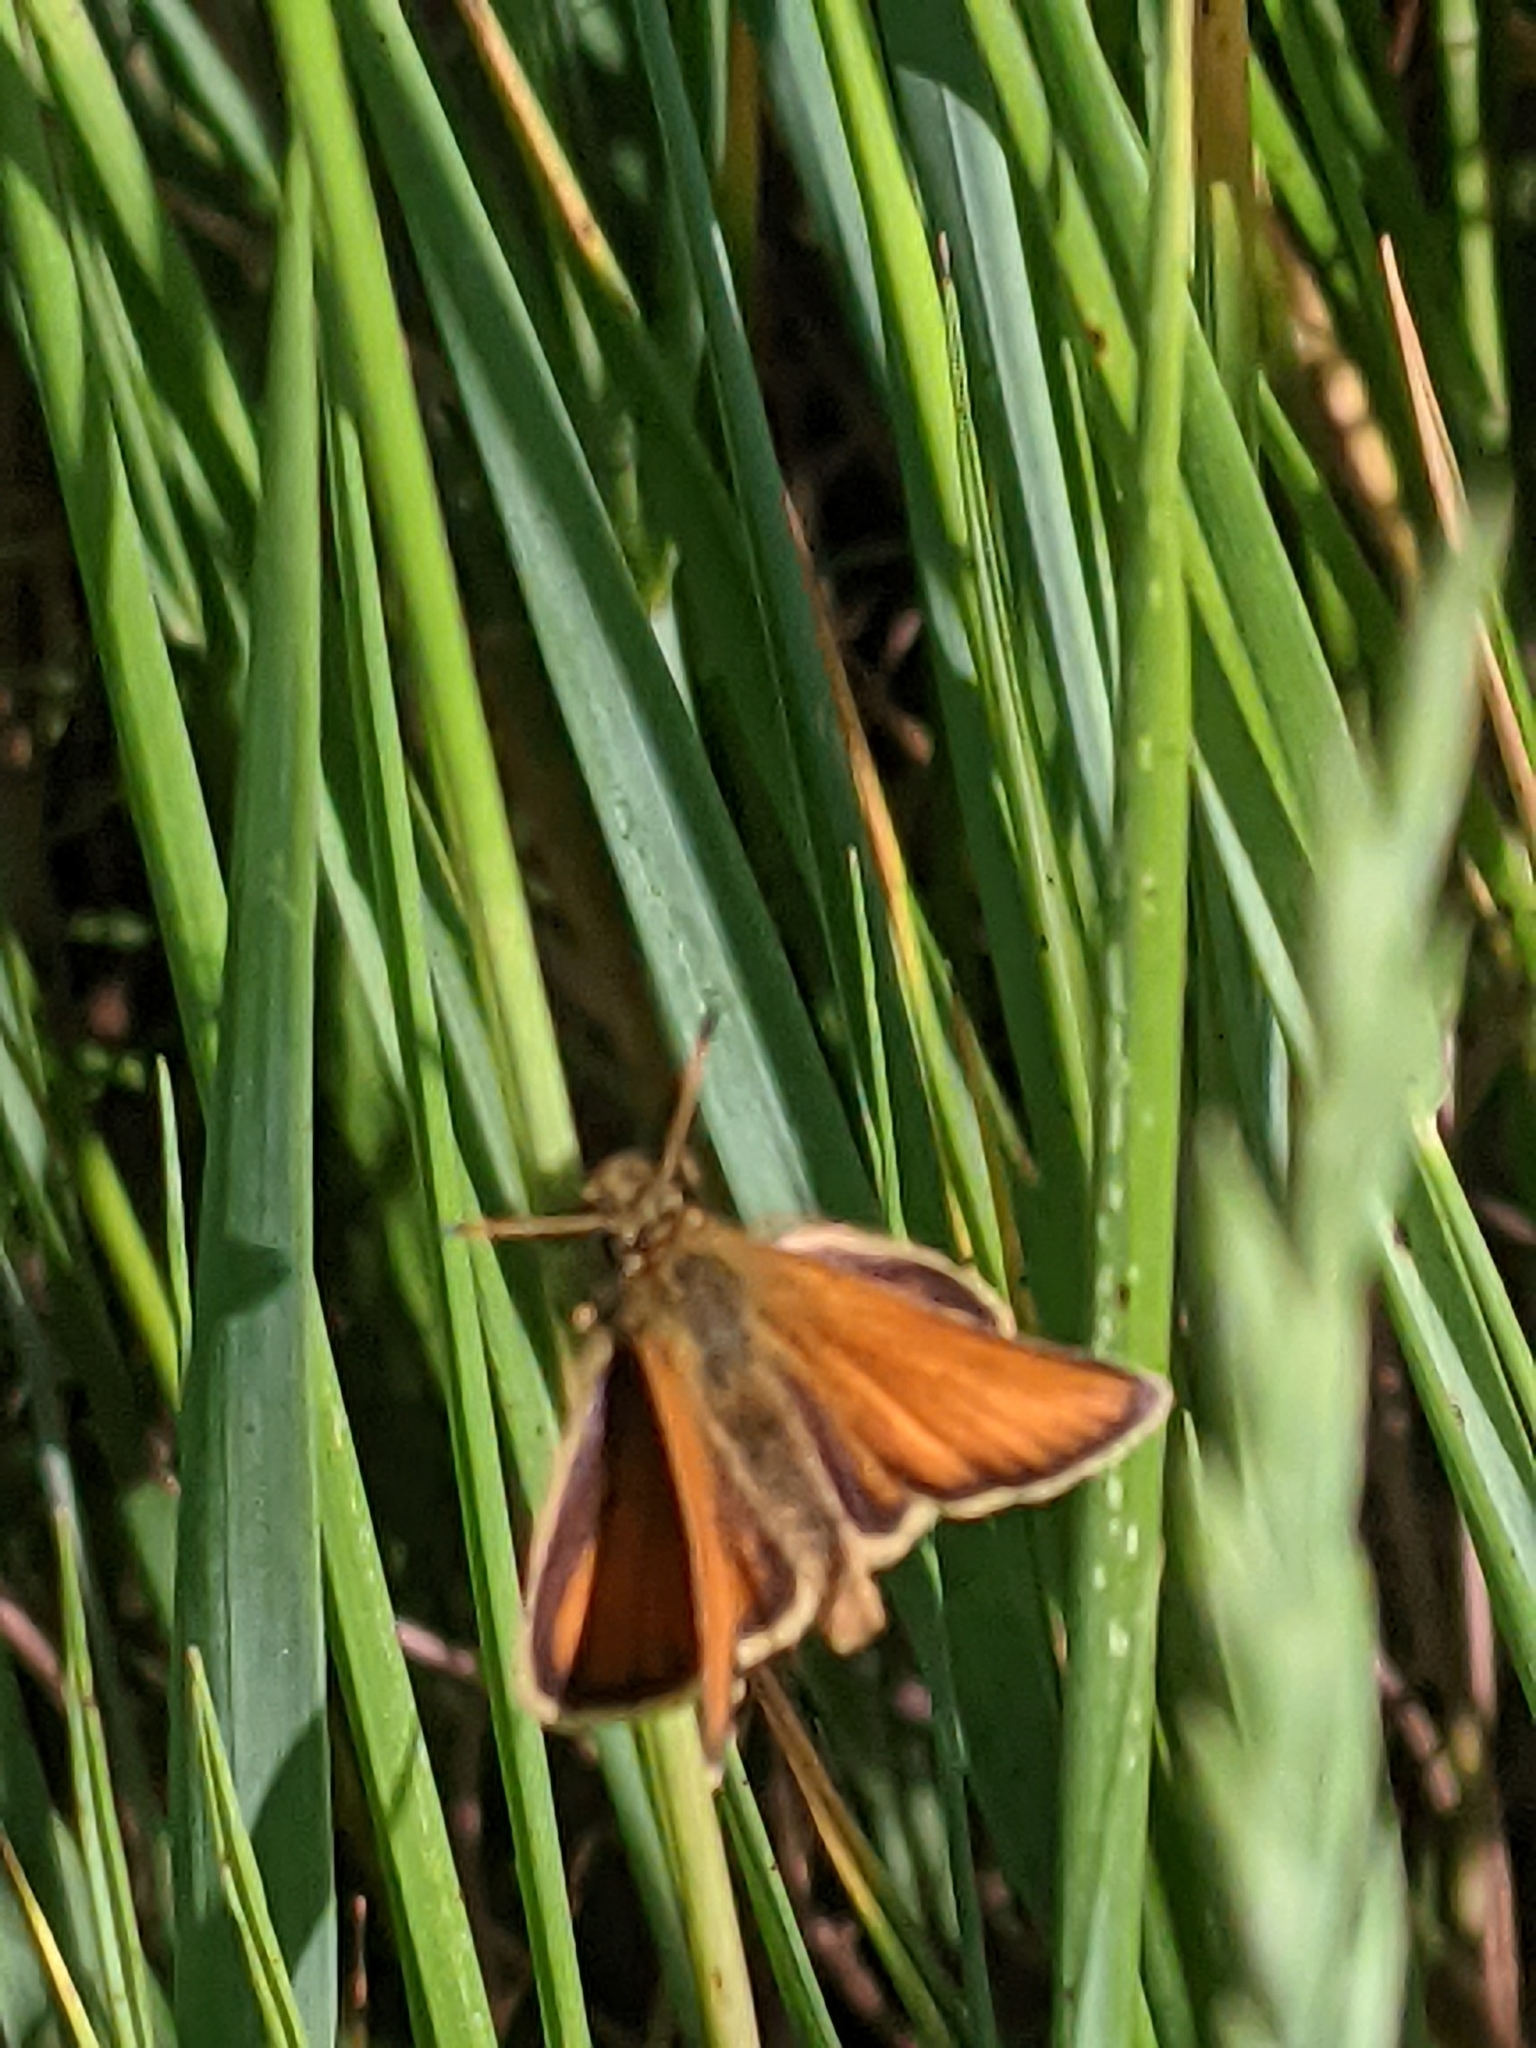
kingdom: Animalia
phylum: Arthropoda
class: Insecta
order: Lepidoptera
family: Hesperiidae
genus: Thymelicus
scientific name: Thymelicus lineola
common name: Essex skipper
